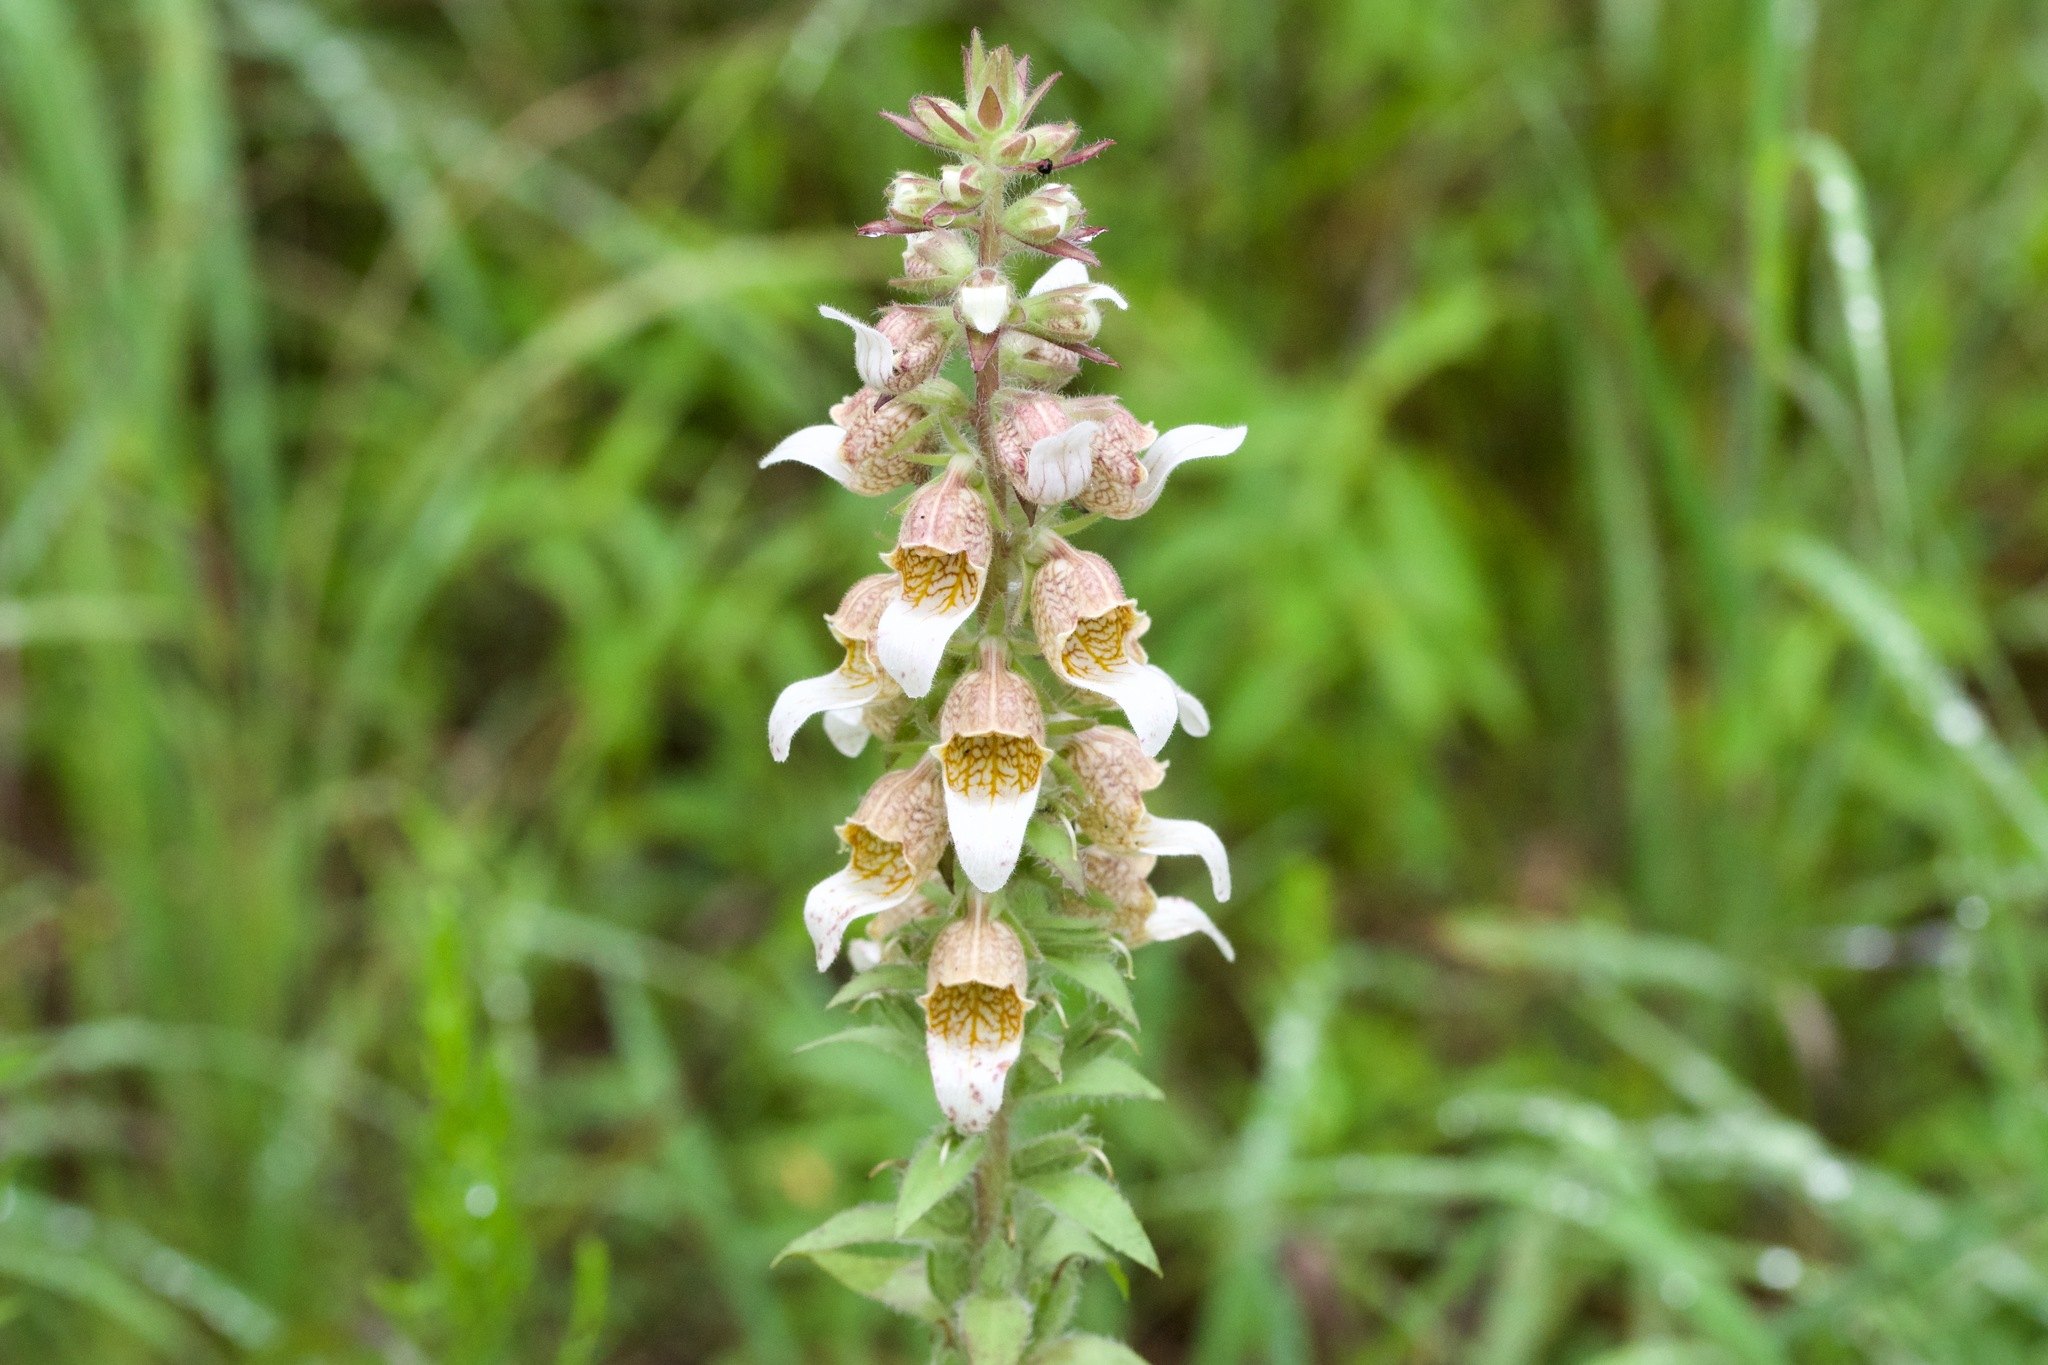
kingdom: Plantae
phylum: Tracheophyta
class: Magnoliopsida
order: Lamiales
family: Plantaginaceae
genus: Digitalis
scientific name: Digitalis lanata
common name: Grecian foxglove
